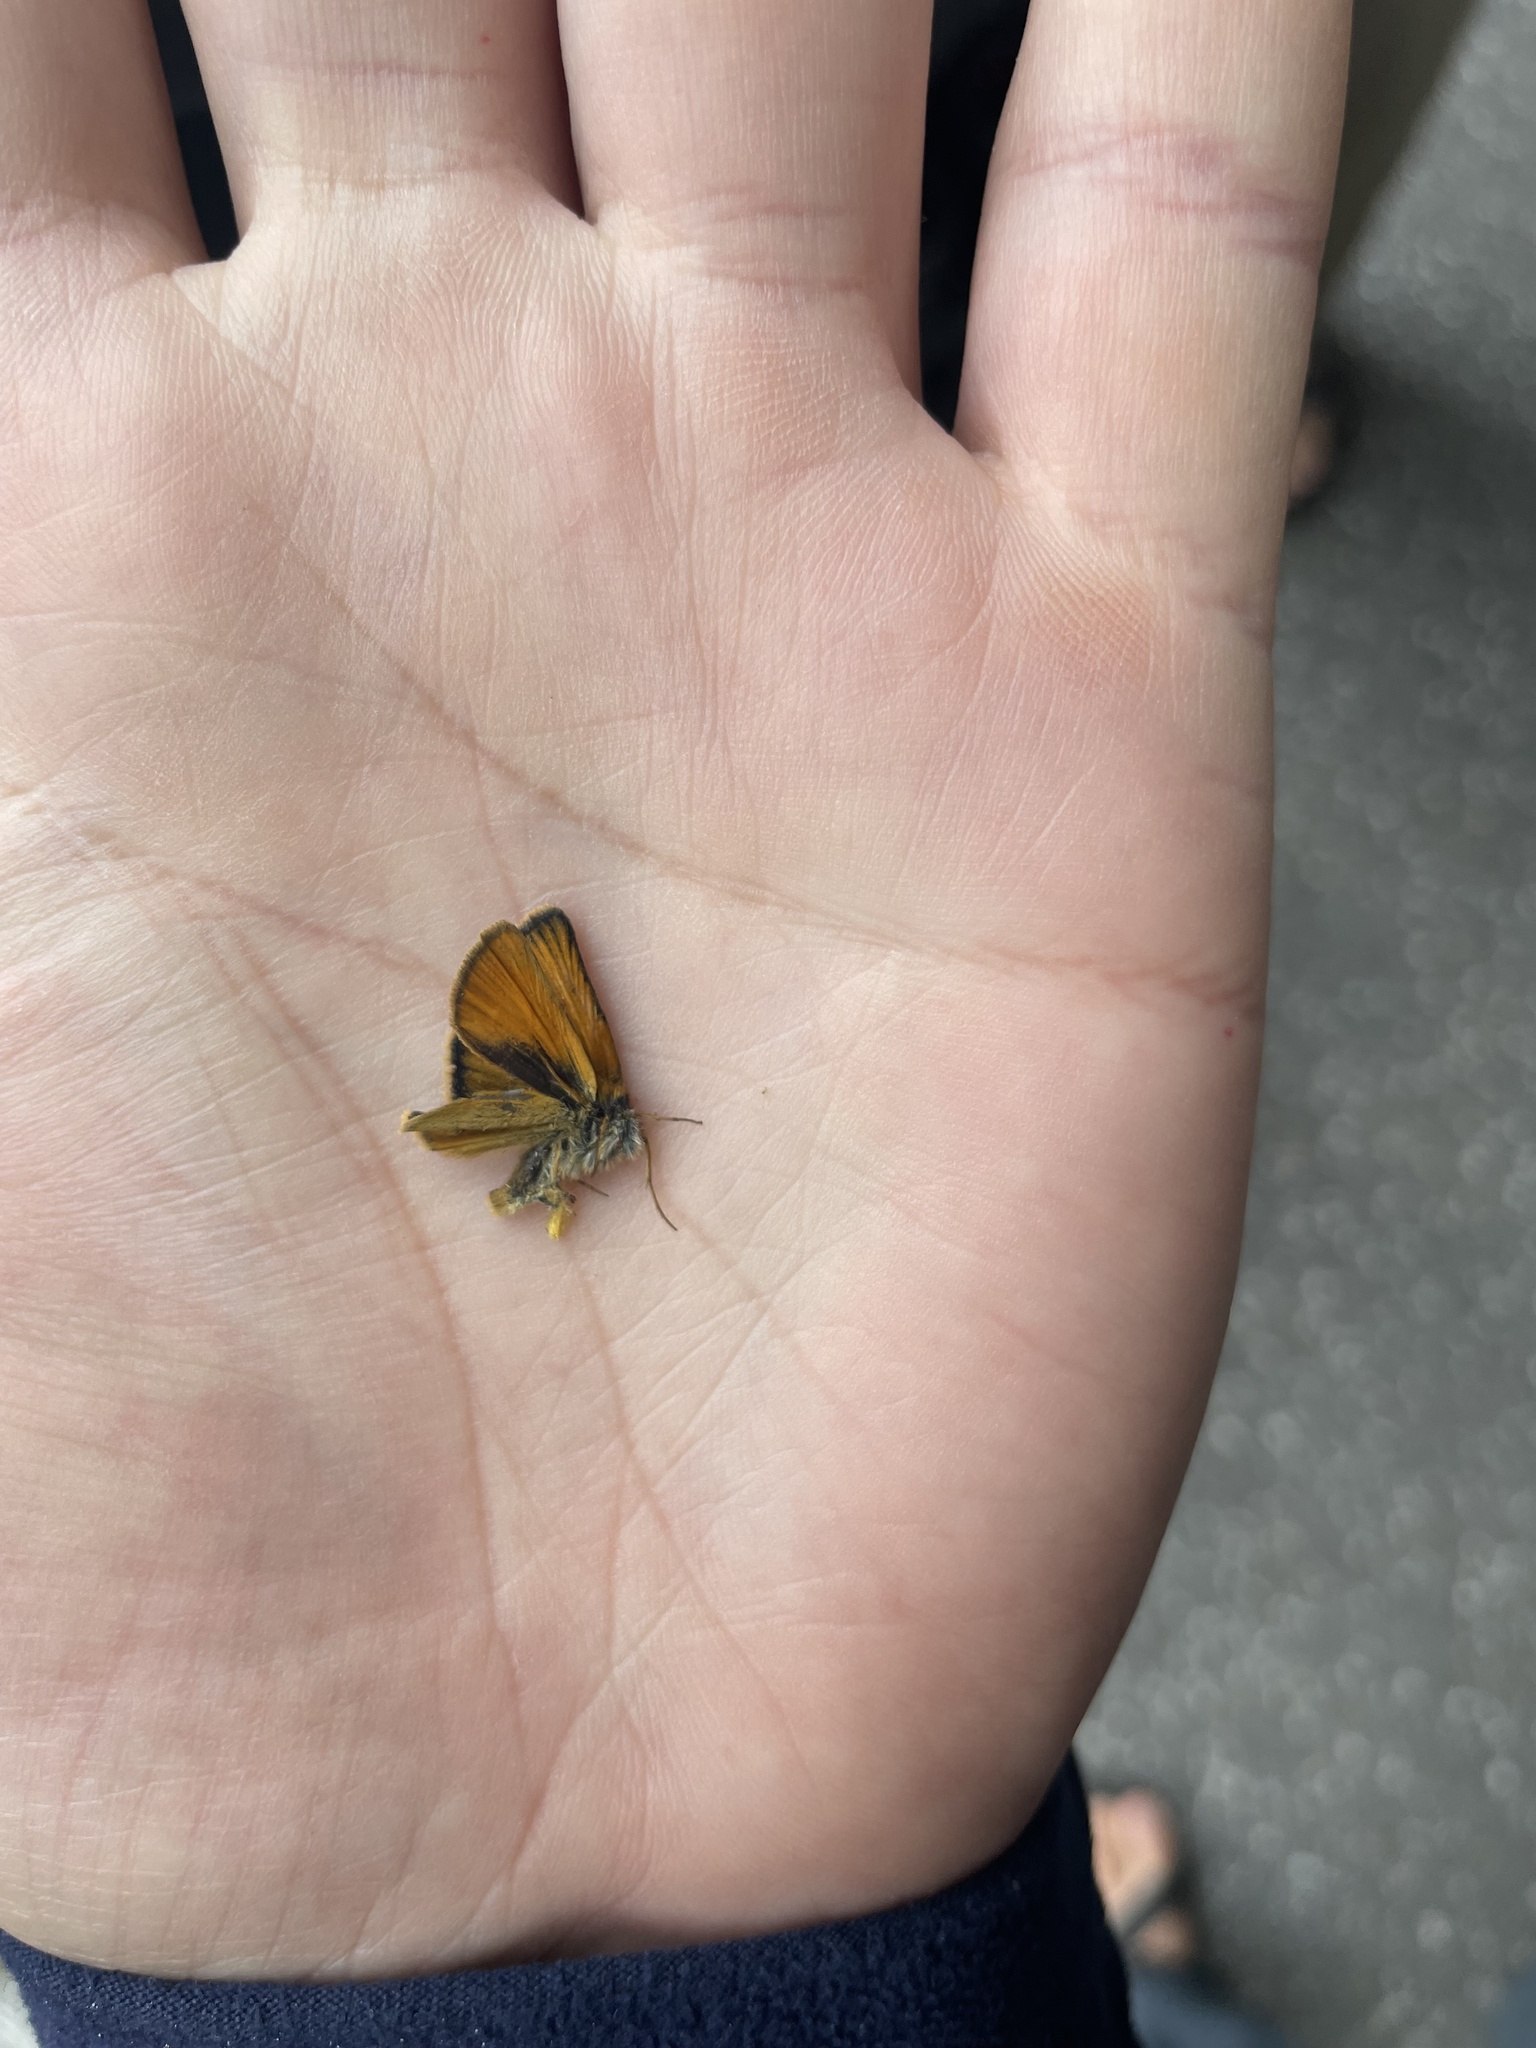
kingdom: Animalia
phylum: Arthropoda
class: Insecta
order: Lepidoptera
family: Hesperiidae
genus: Thymelicus
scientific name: Thymelicus lineola
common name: Essex skipper
